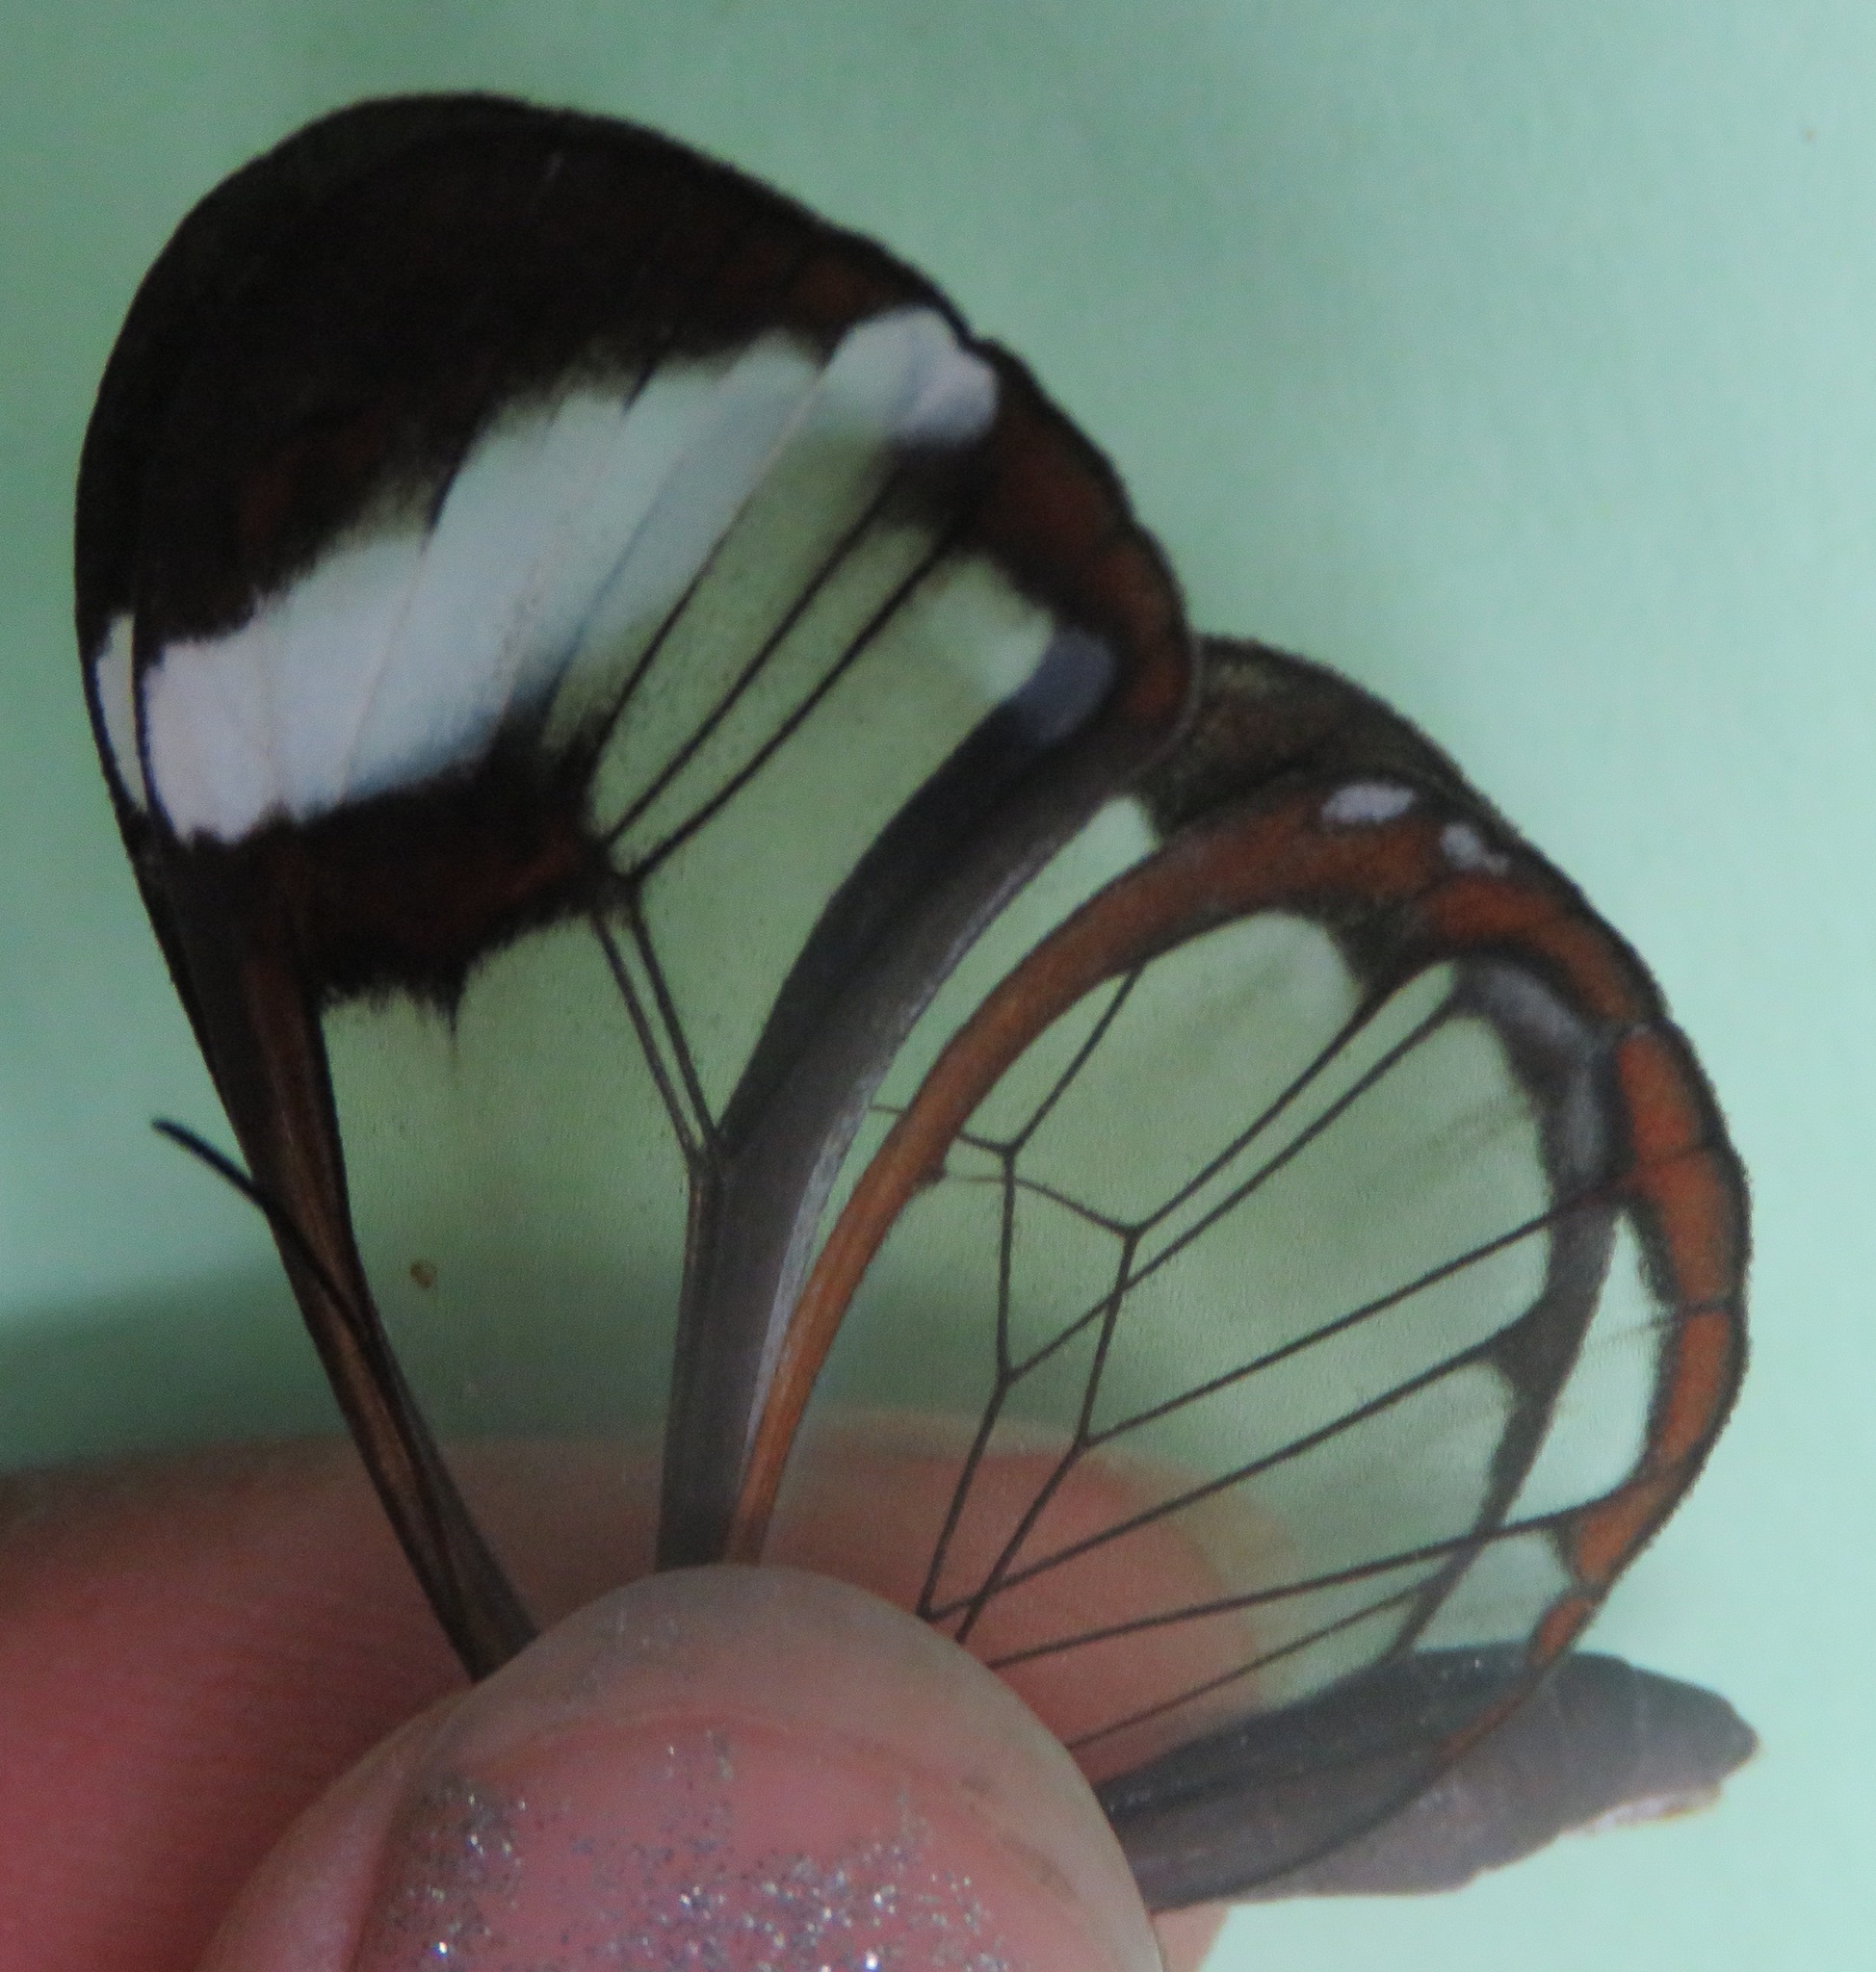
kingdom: Animalia
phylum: Arthropoda
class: Insecta
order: Lepidoptera
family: Nymphalidae
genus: Greta
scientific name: Greta morgane
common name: Thick-tipped greta
